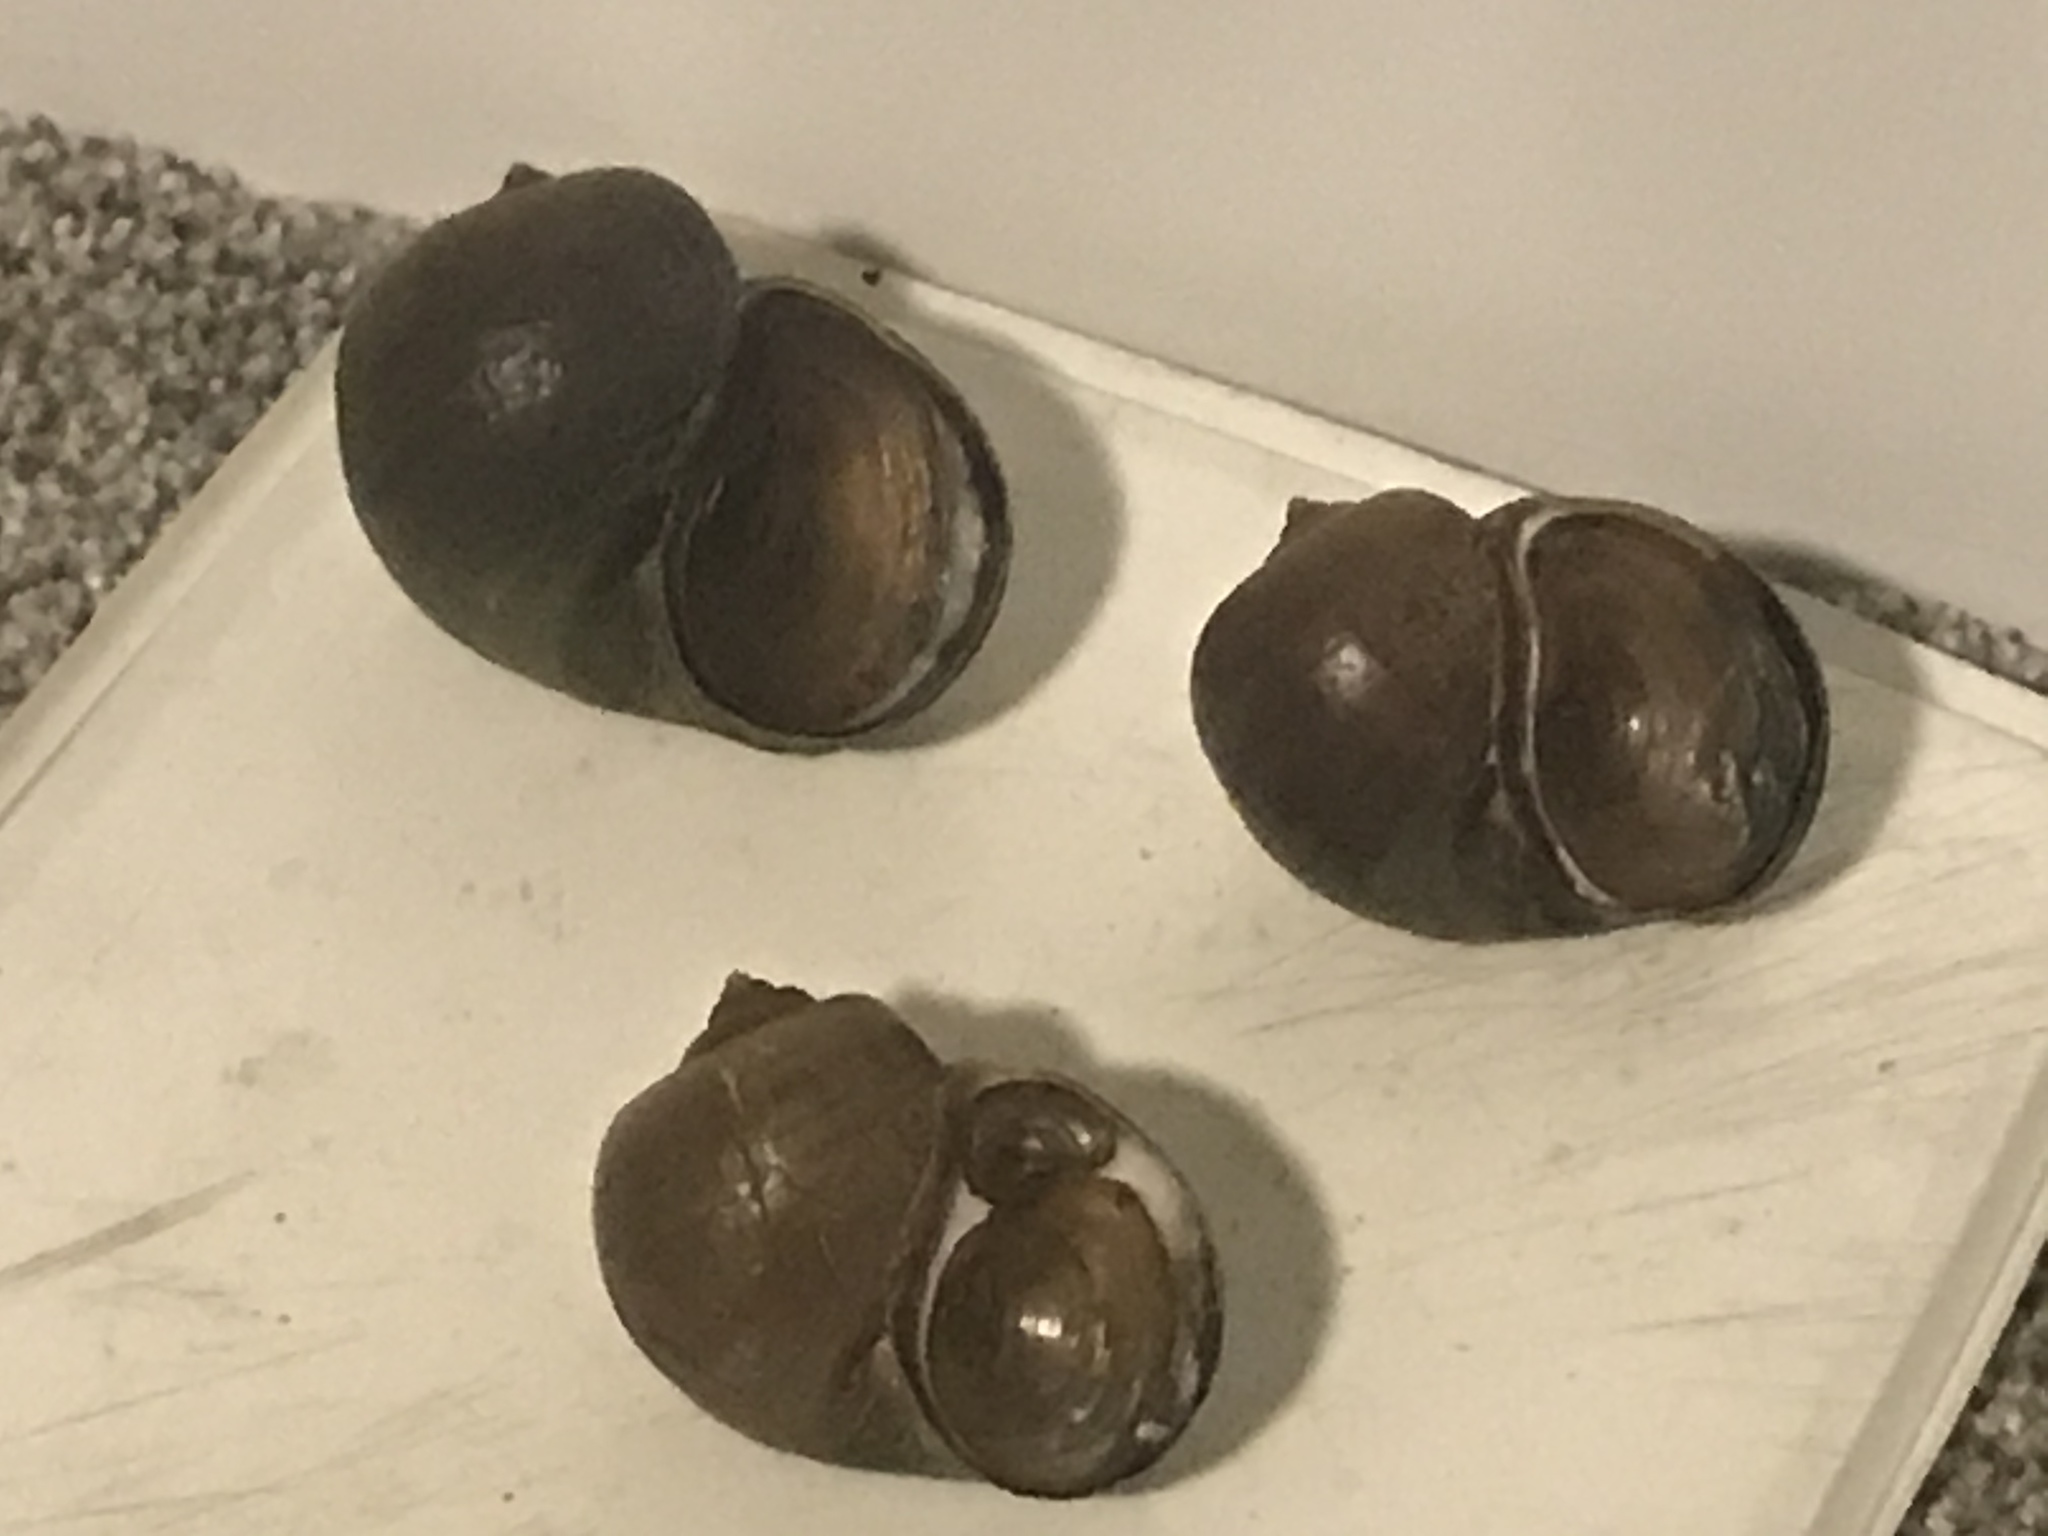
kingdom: Animalia
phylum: Mollusca
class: Gastropoda
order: Architaenioglossa
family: Ampullariidae
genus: Pomacea
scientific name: Pomacea canaliculata
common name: Channeled applesnail
